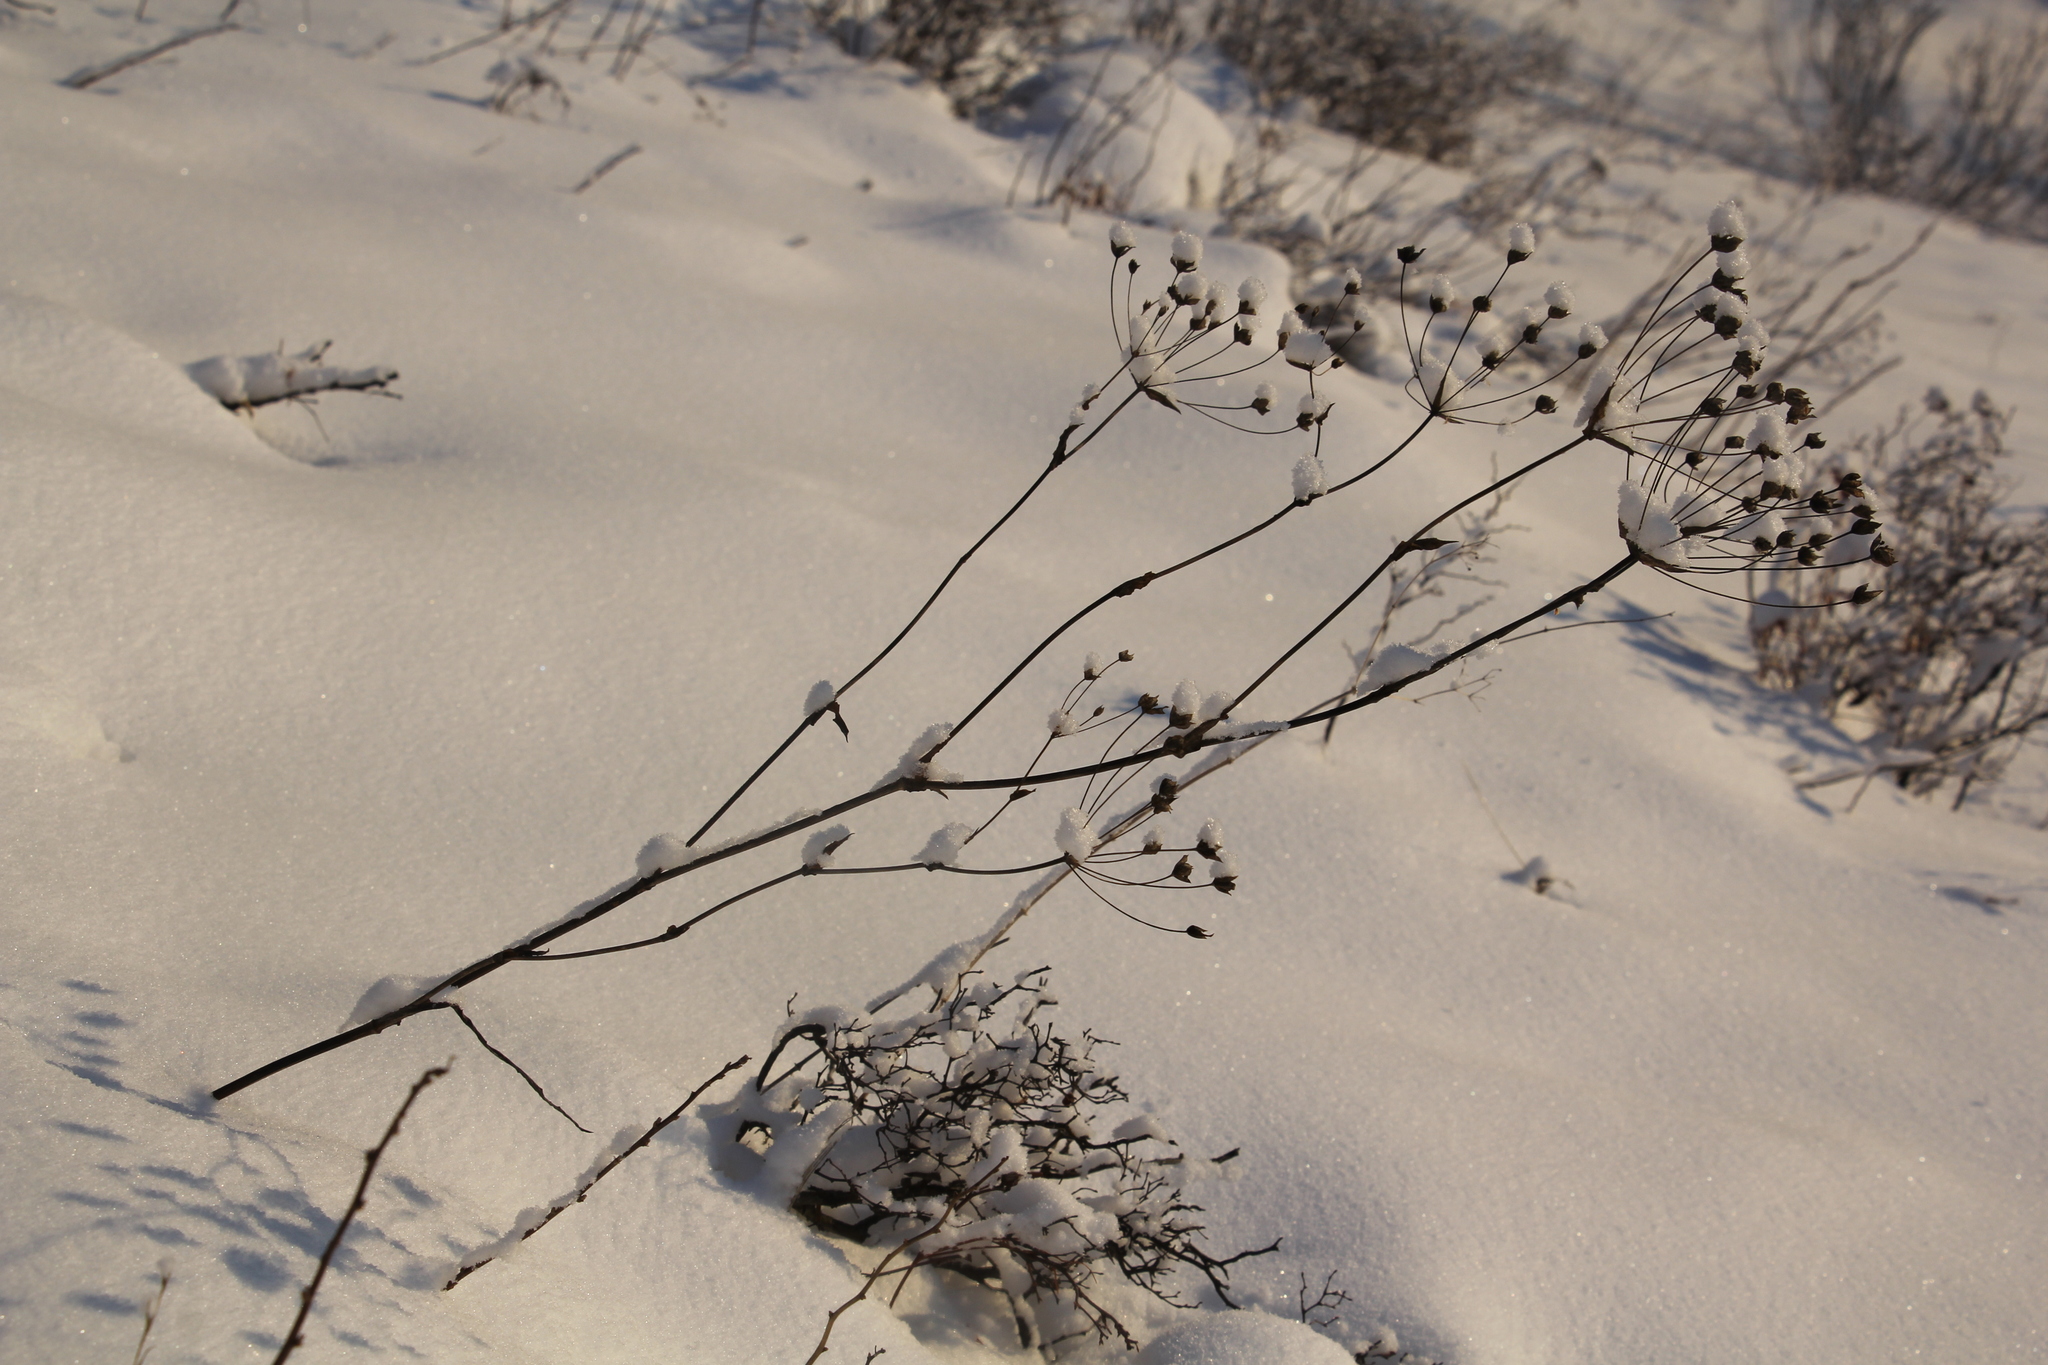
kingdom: Plantae
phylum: Tracheophyta
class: Magnoliopsida
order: Apiales
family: Apiaceae
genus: Bupleurum
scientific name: Bupleurum multinerve
